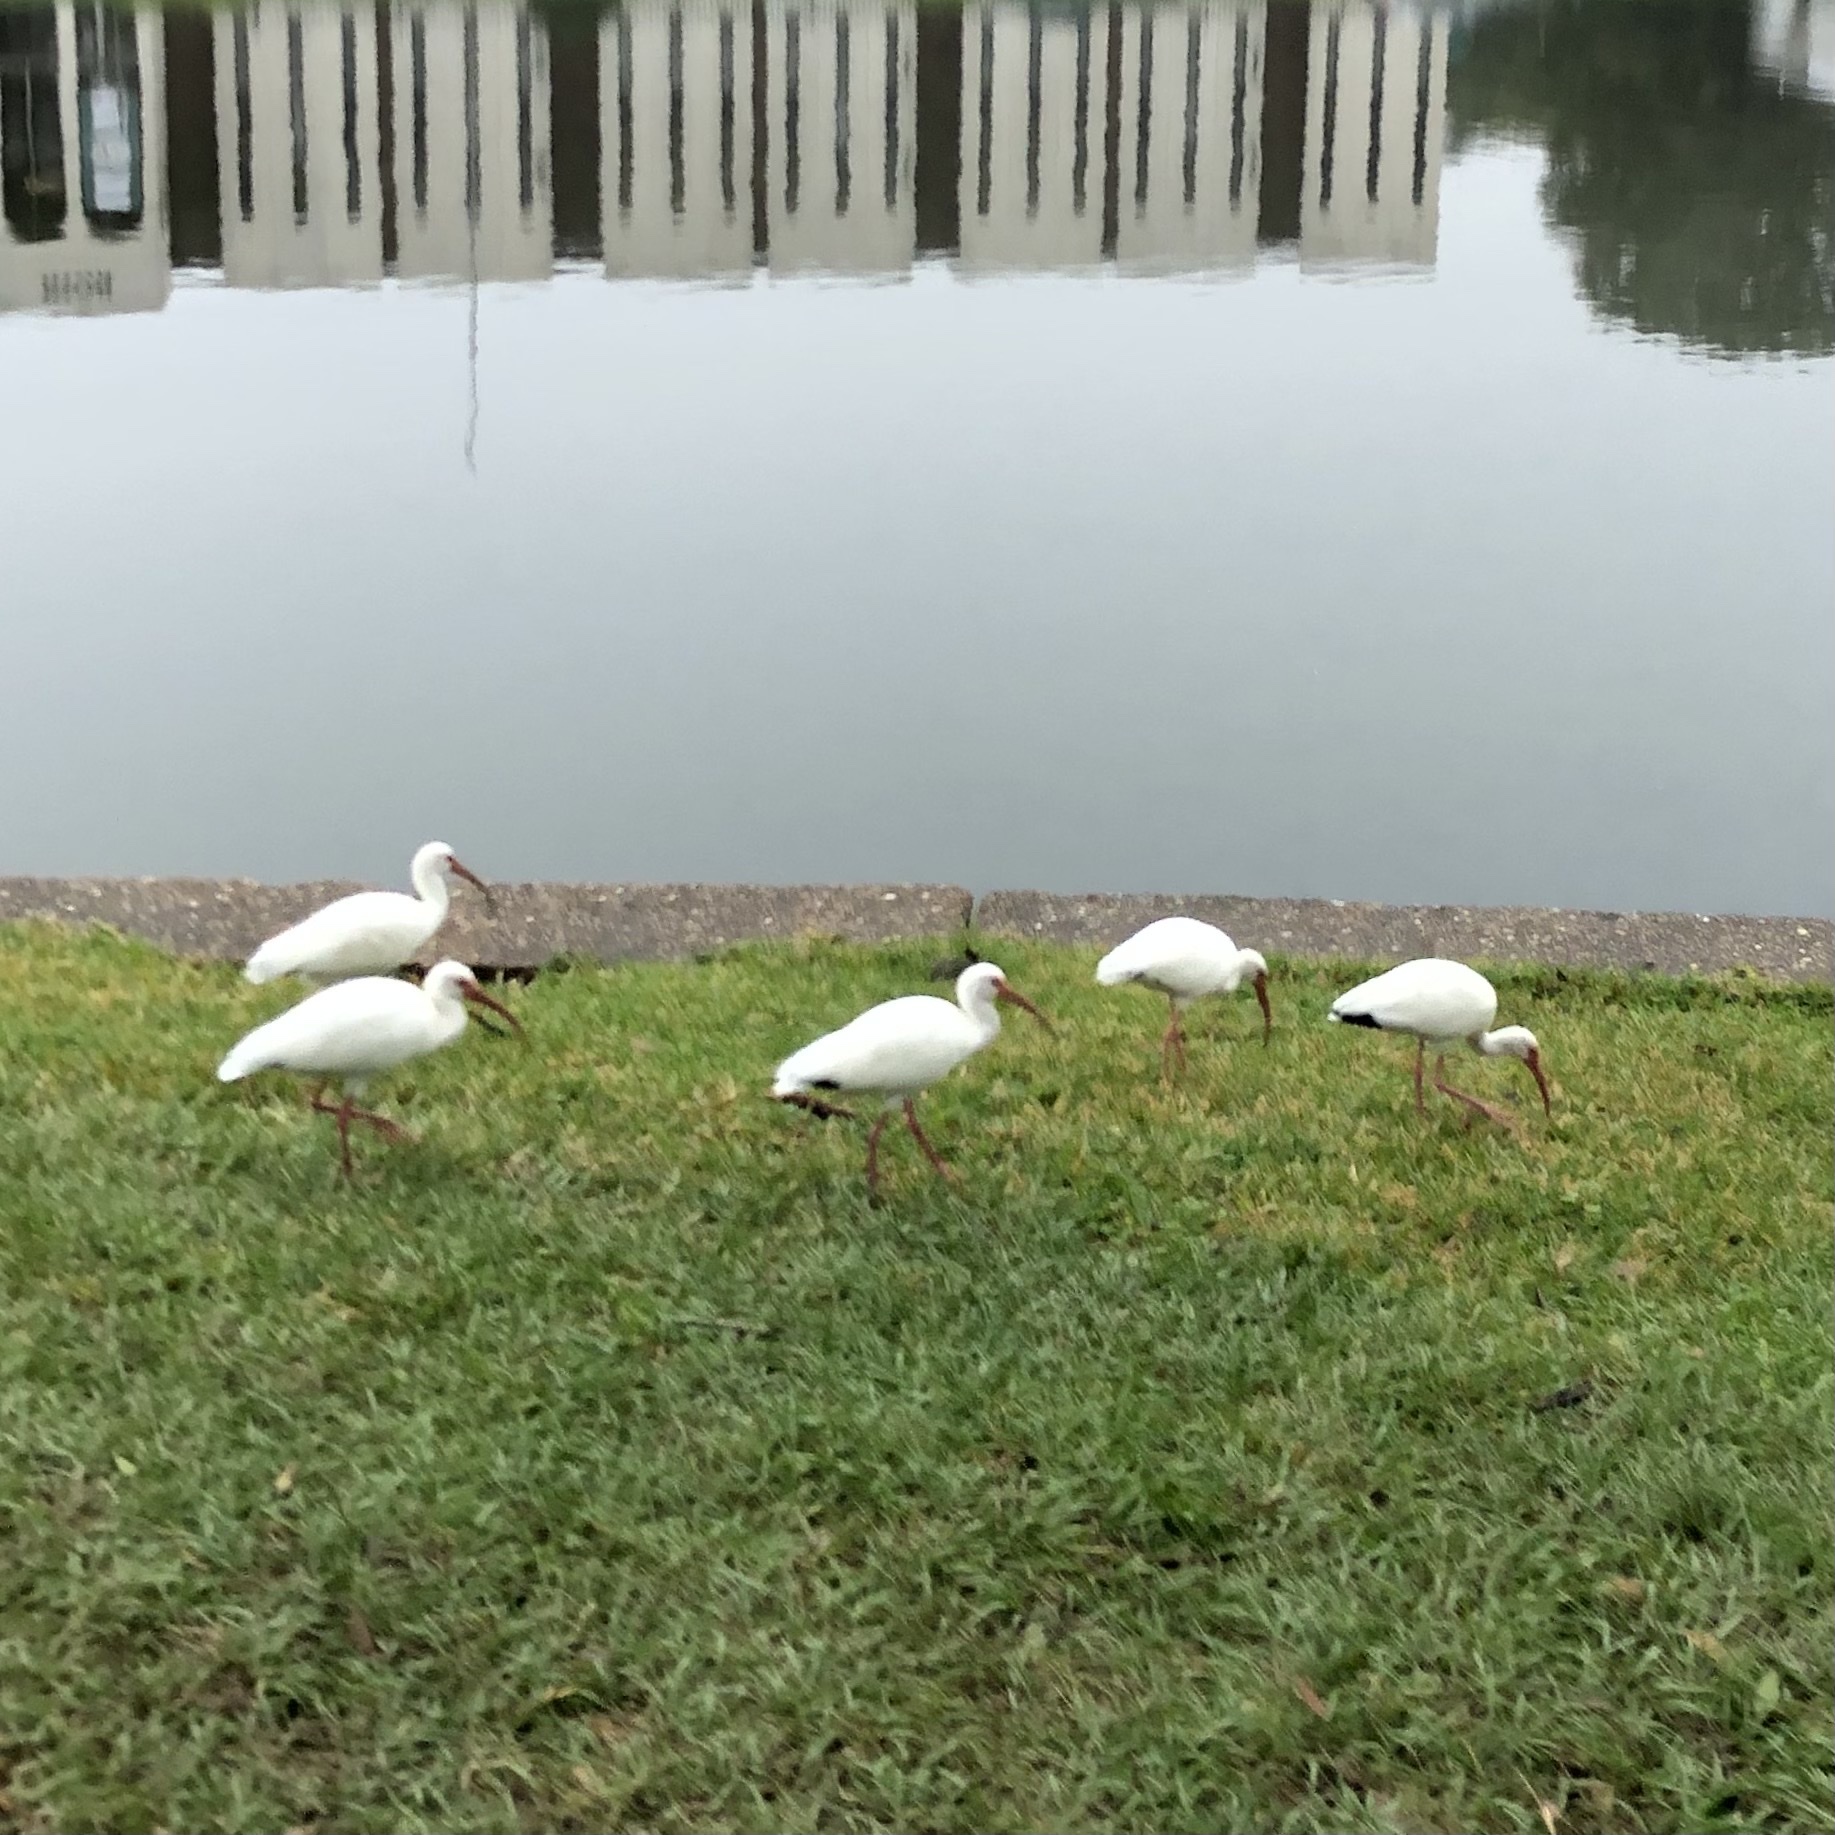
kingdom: Animalia
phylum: Chordata
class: Aves
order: Pelecaniformes
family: Threskiornithidae
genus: Eudocimus
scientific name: Eudocimus albus
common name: White ibis
